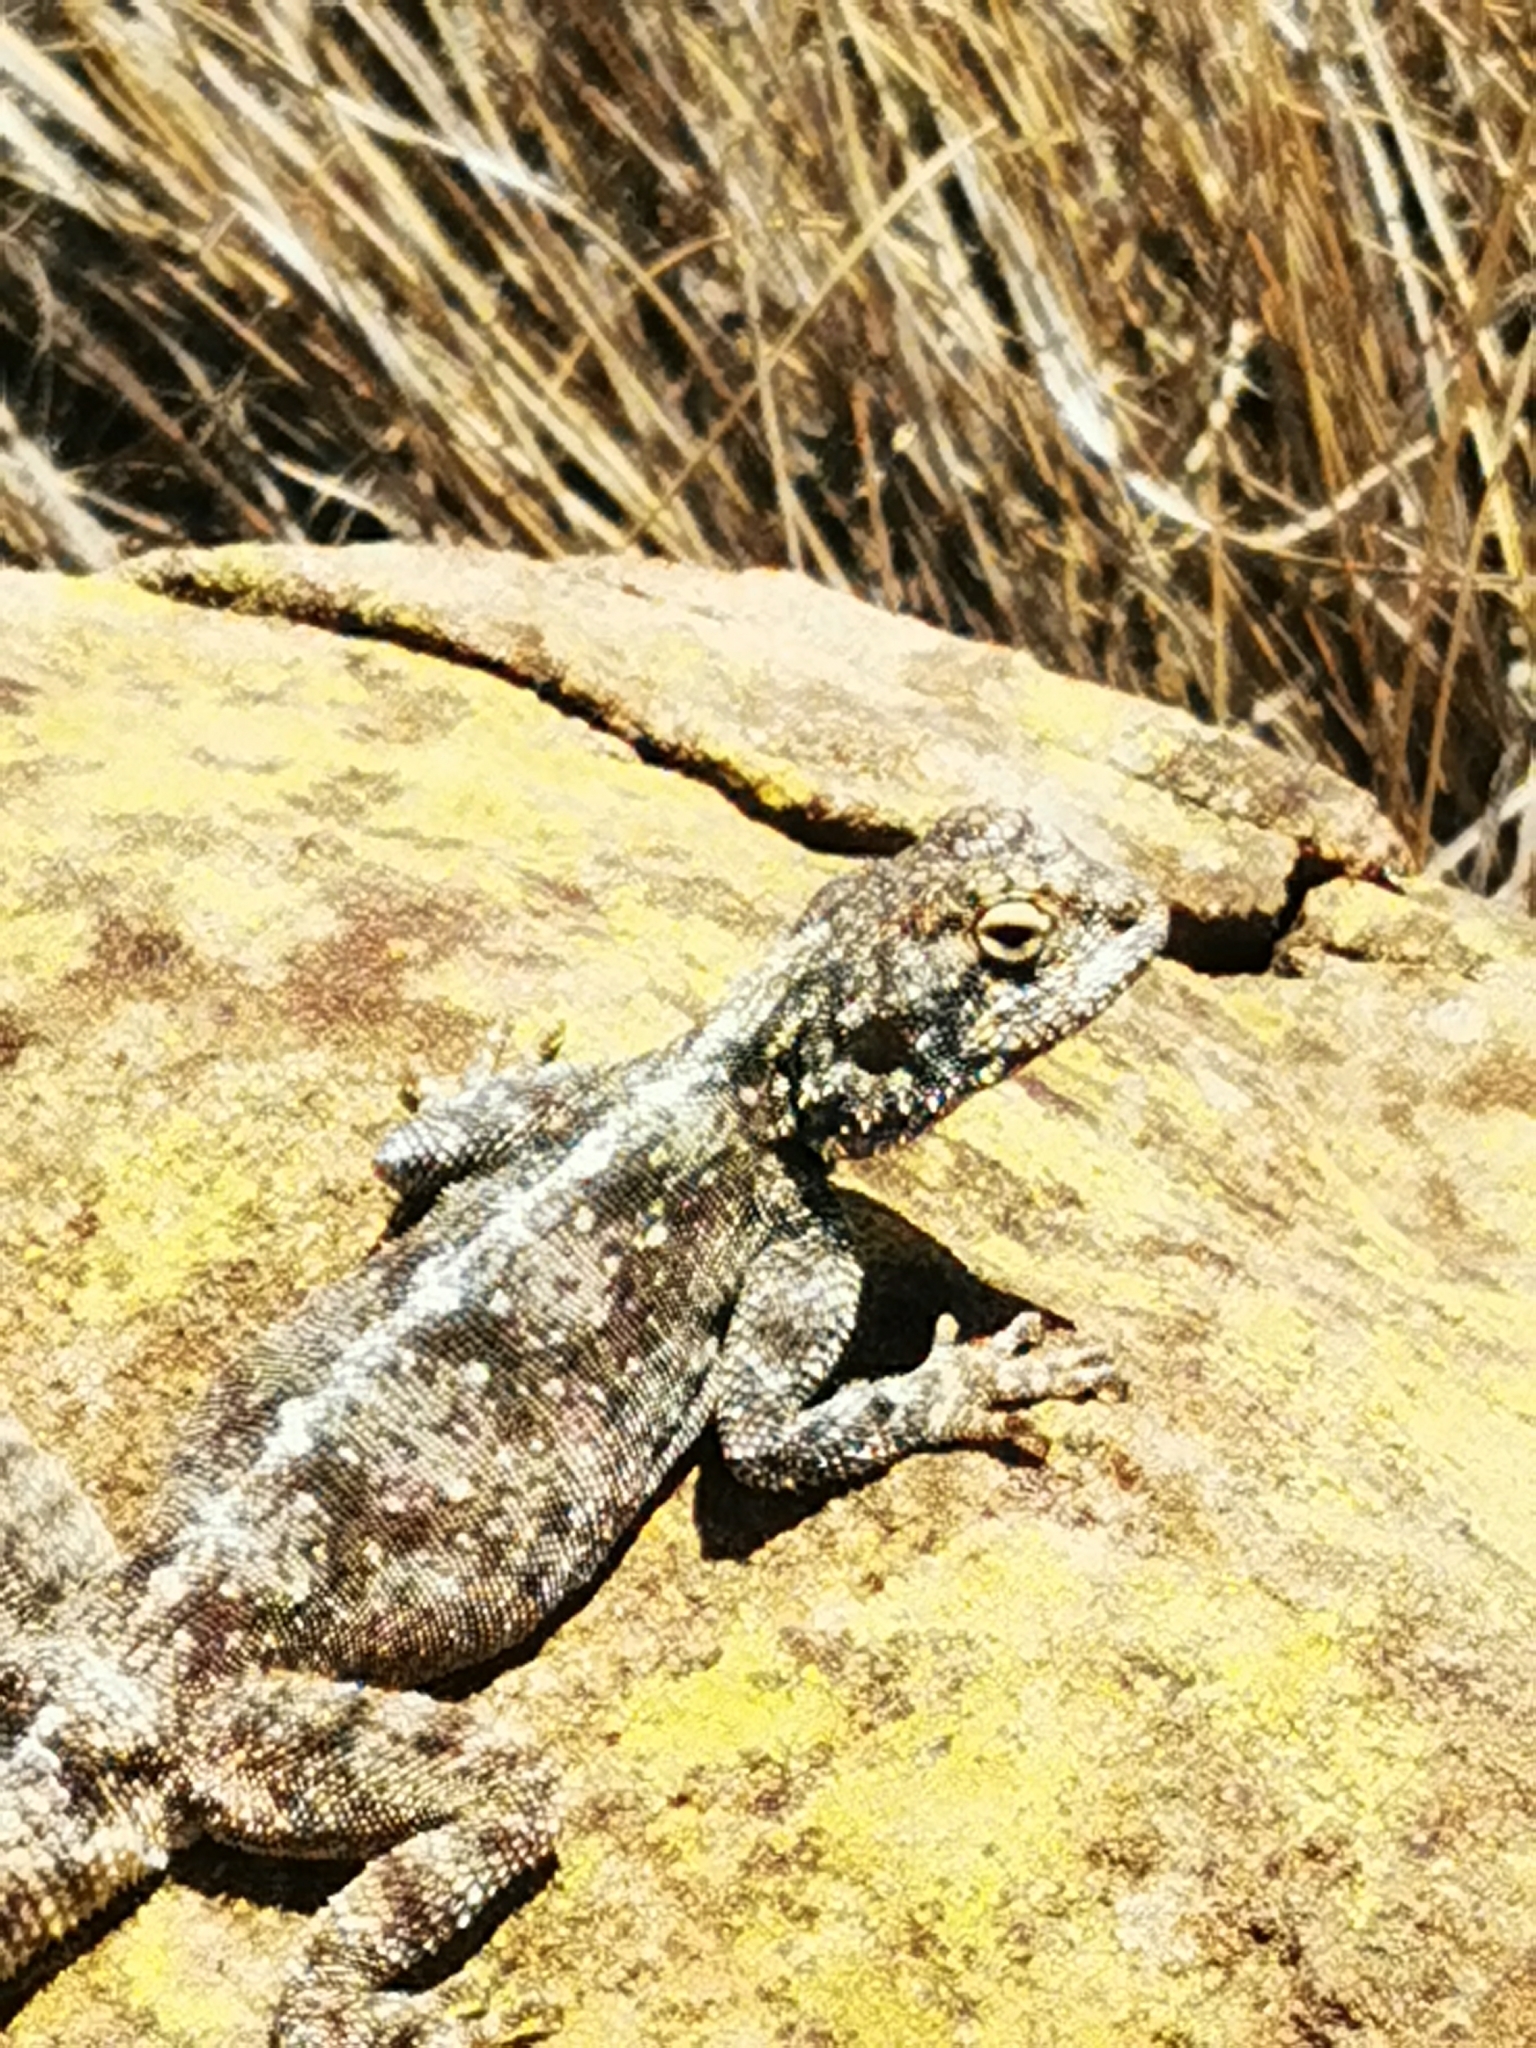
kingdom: Animalia
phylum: Chordata
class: Squamata
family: Agamidae
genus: Agama
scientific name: Agama atra
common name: Southern african rock agama
